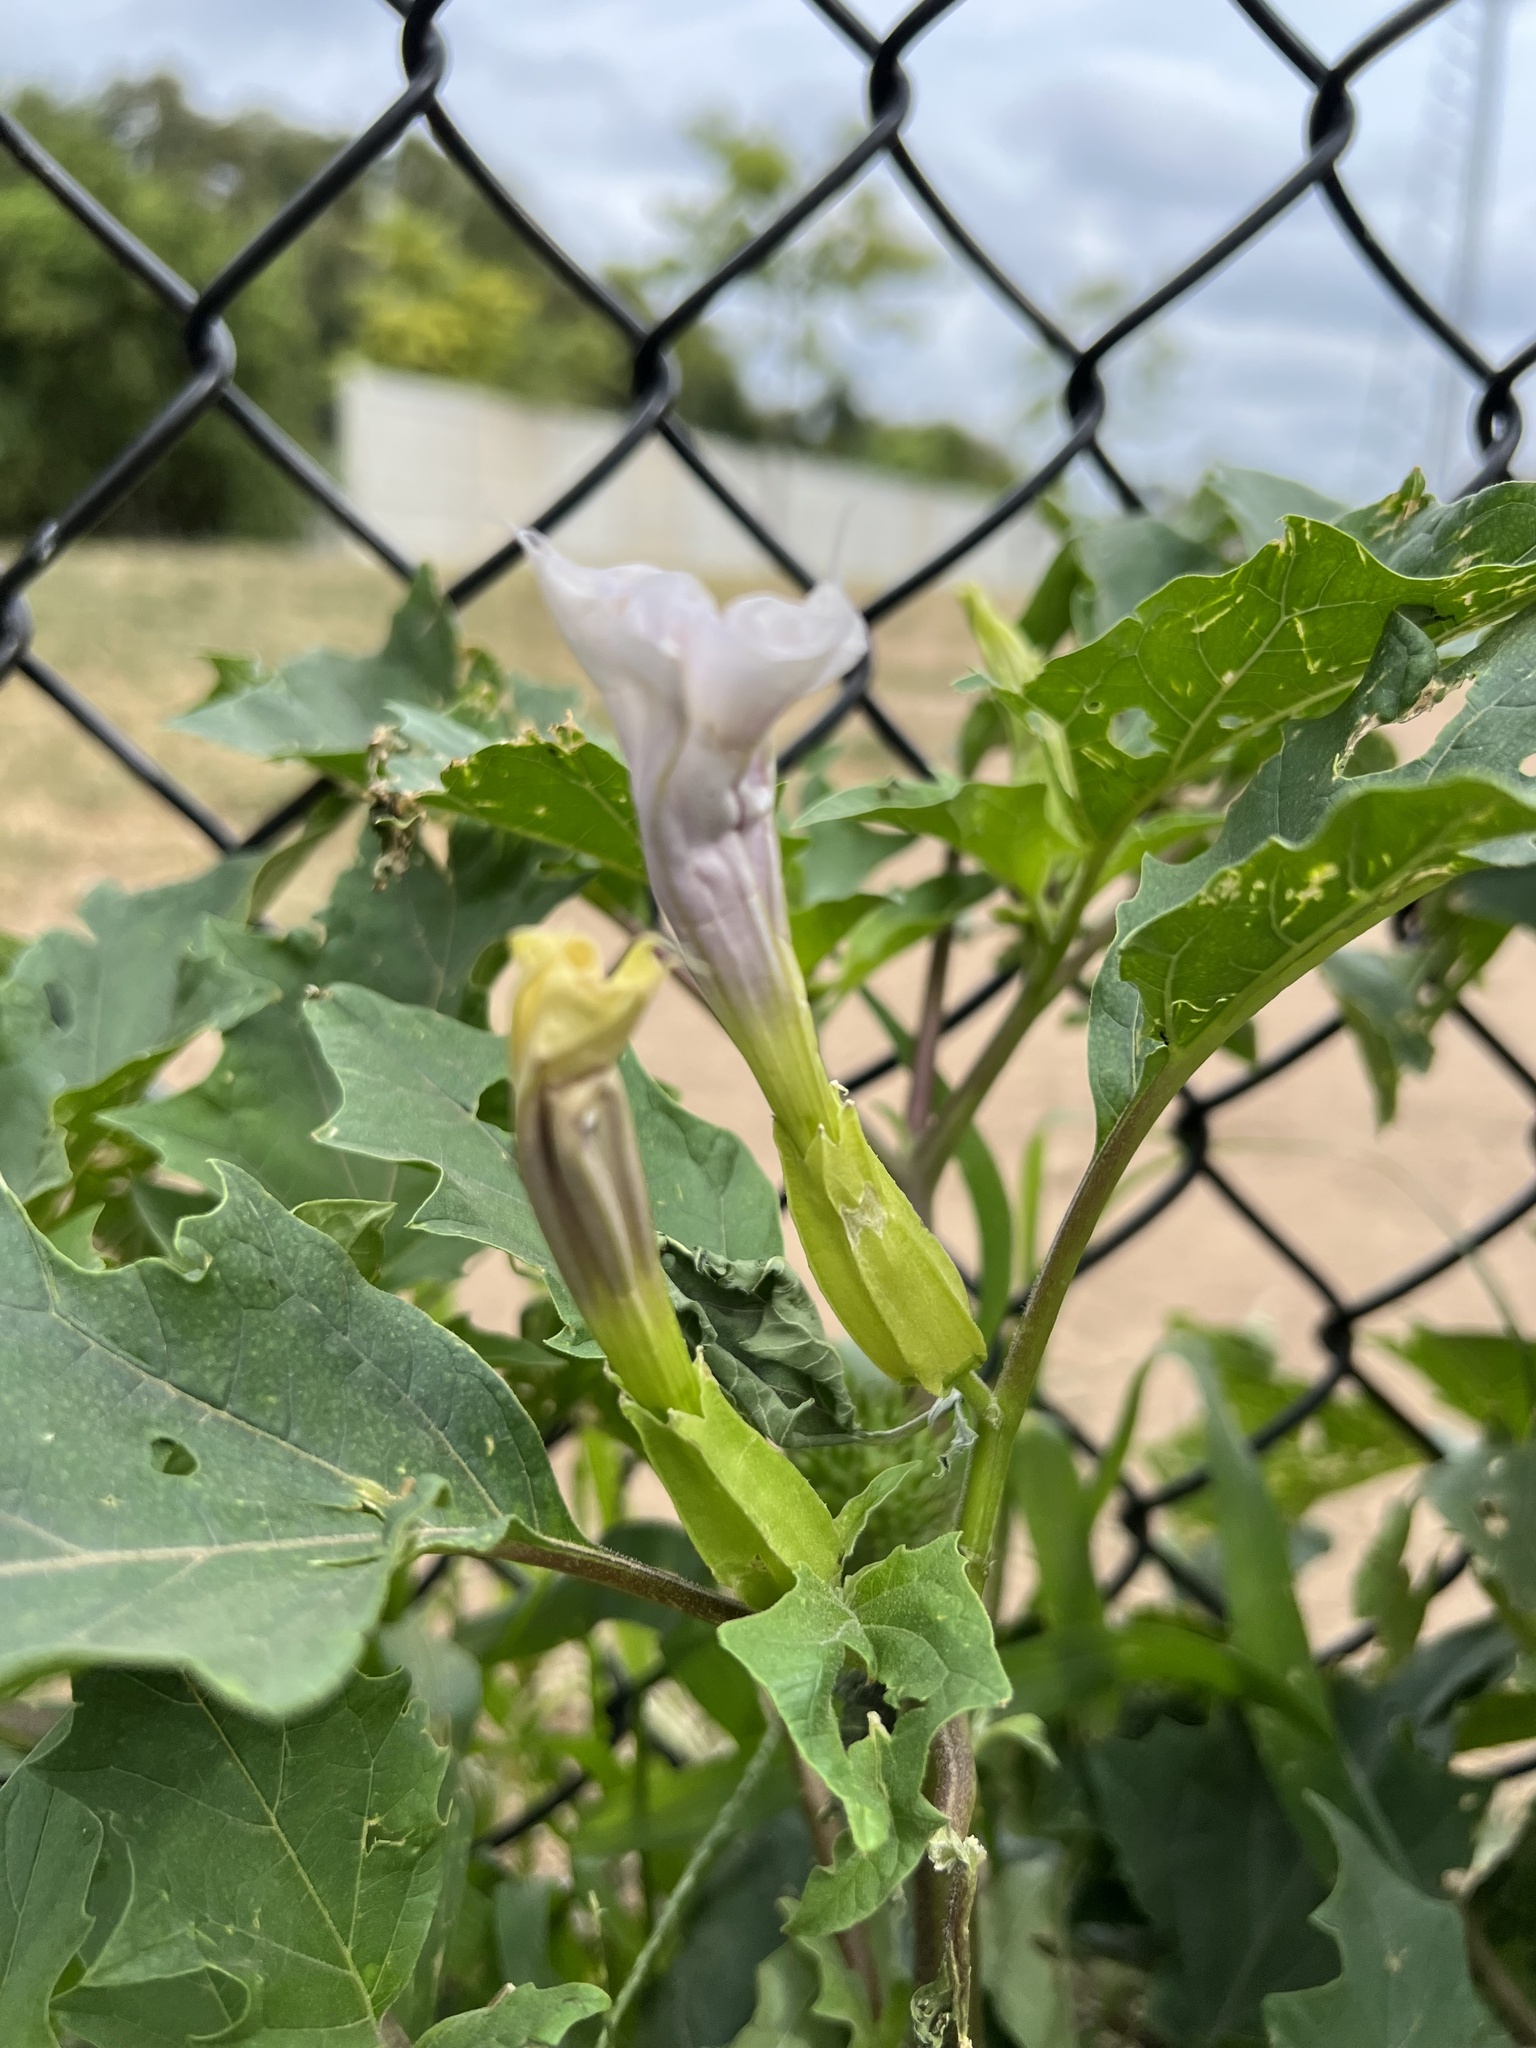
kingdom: Plantae
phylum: Tracheophyta
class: Magnoliopsida
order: Solanales
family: Solanaceae
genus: Datura
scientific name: Datura stramonium
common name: Thorn-apple
